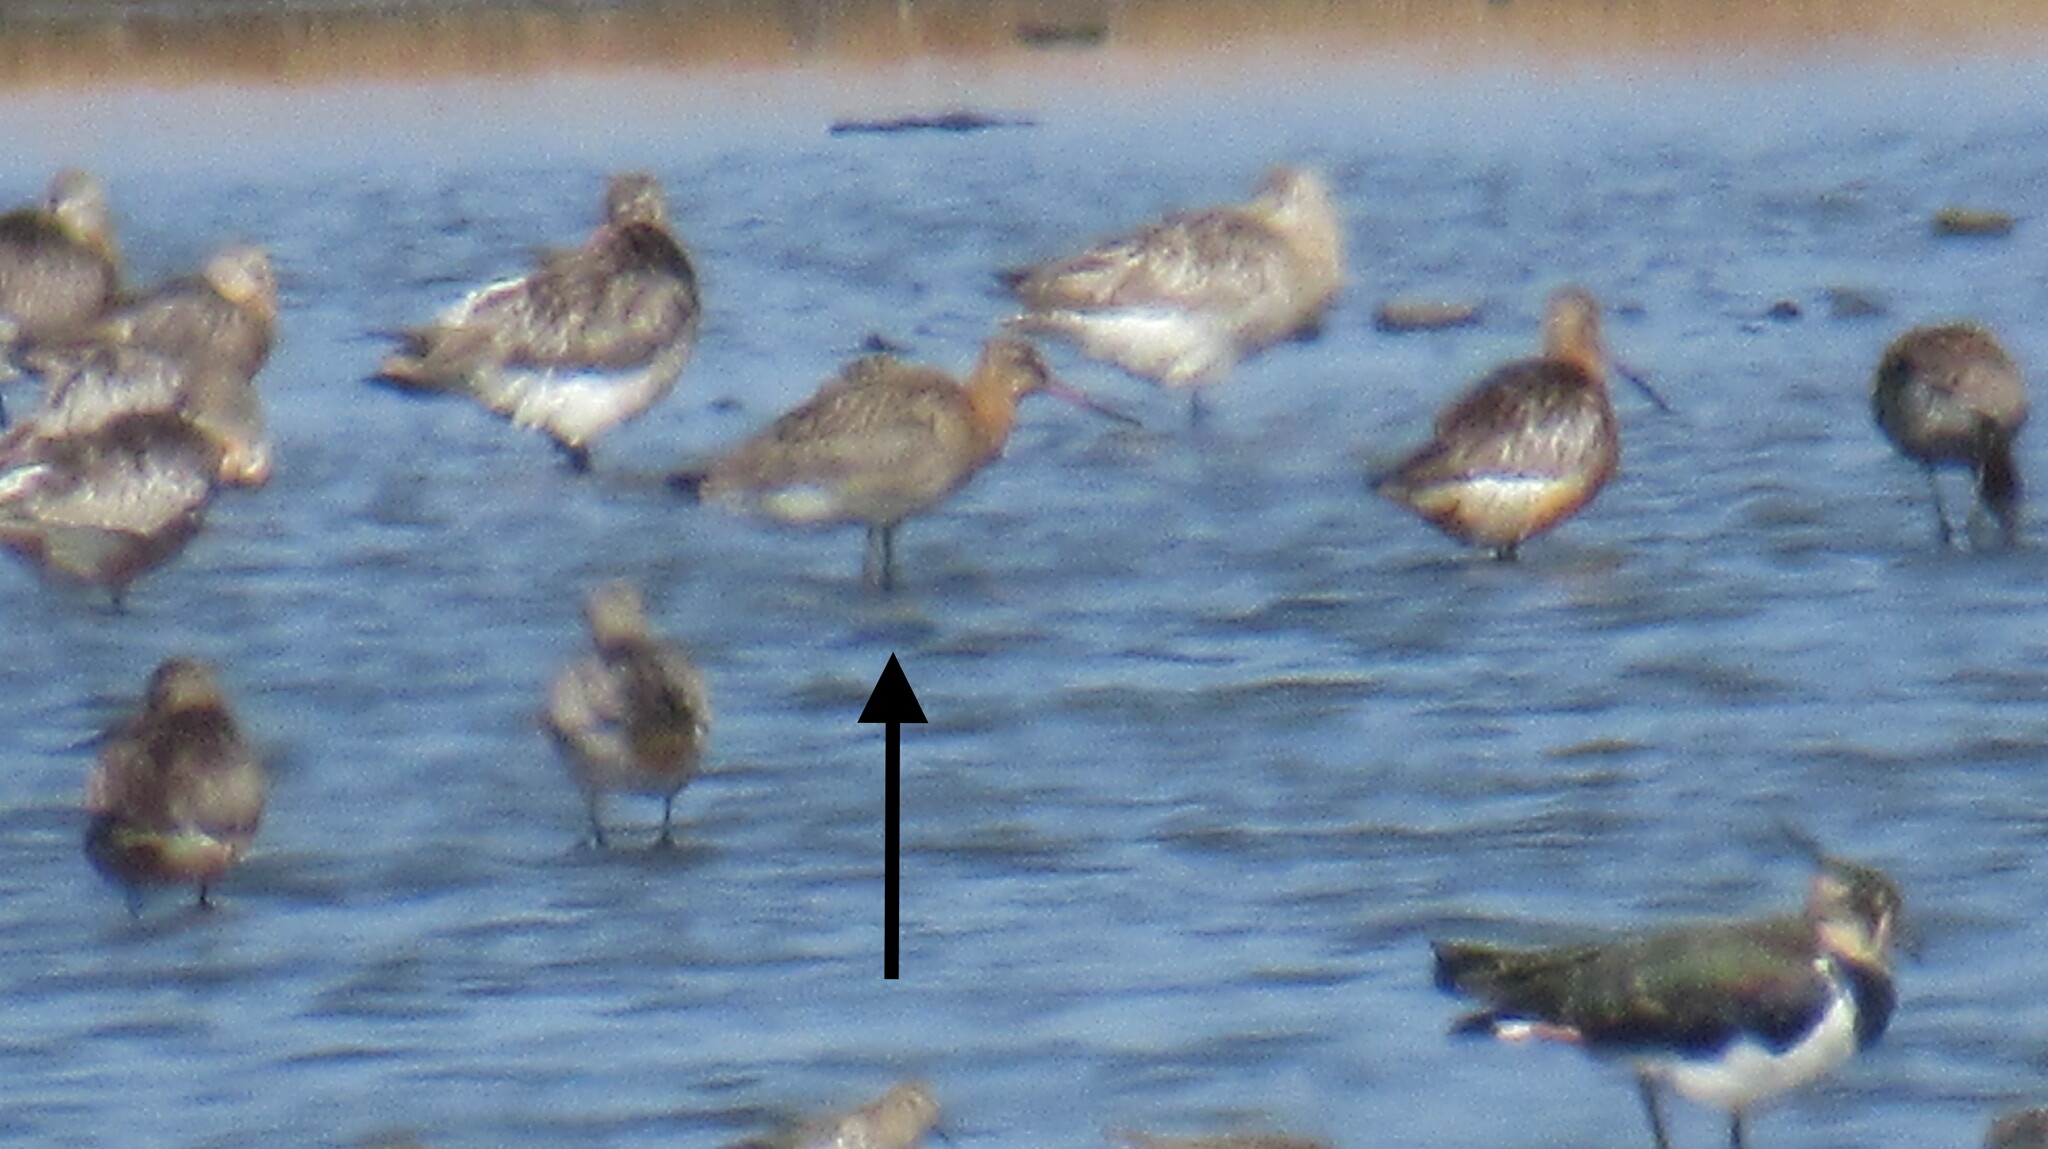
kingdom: Animalia
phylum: Chordata
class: Aves
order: Charadriiformes
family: Scolopacidae
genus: Limosa
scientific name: Limosa limosa
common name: Black-tailed godwit
